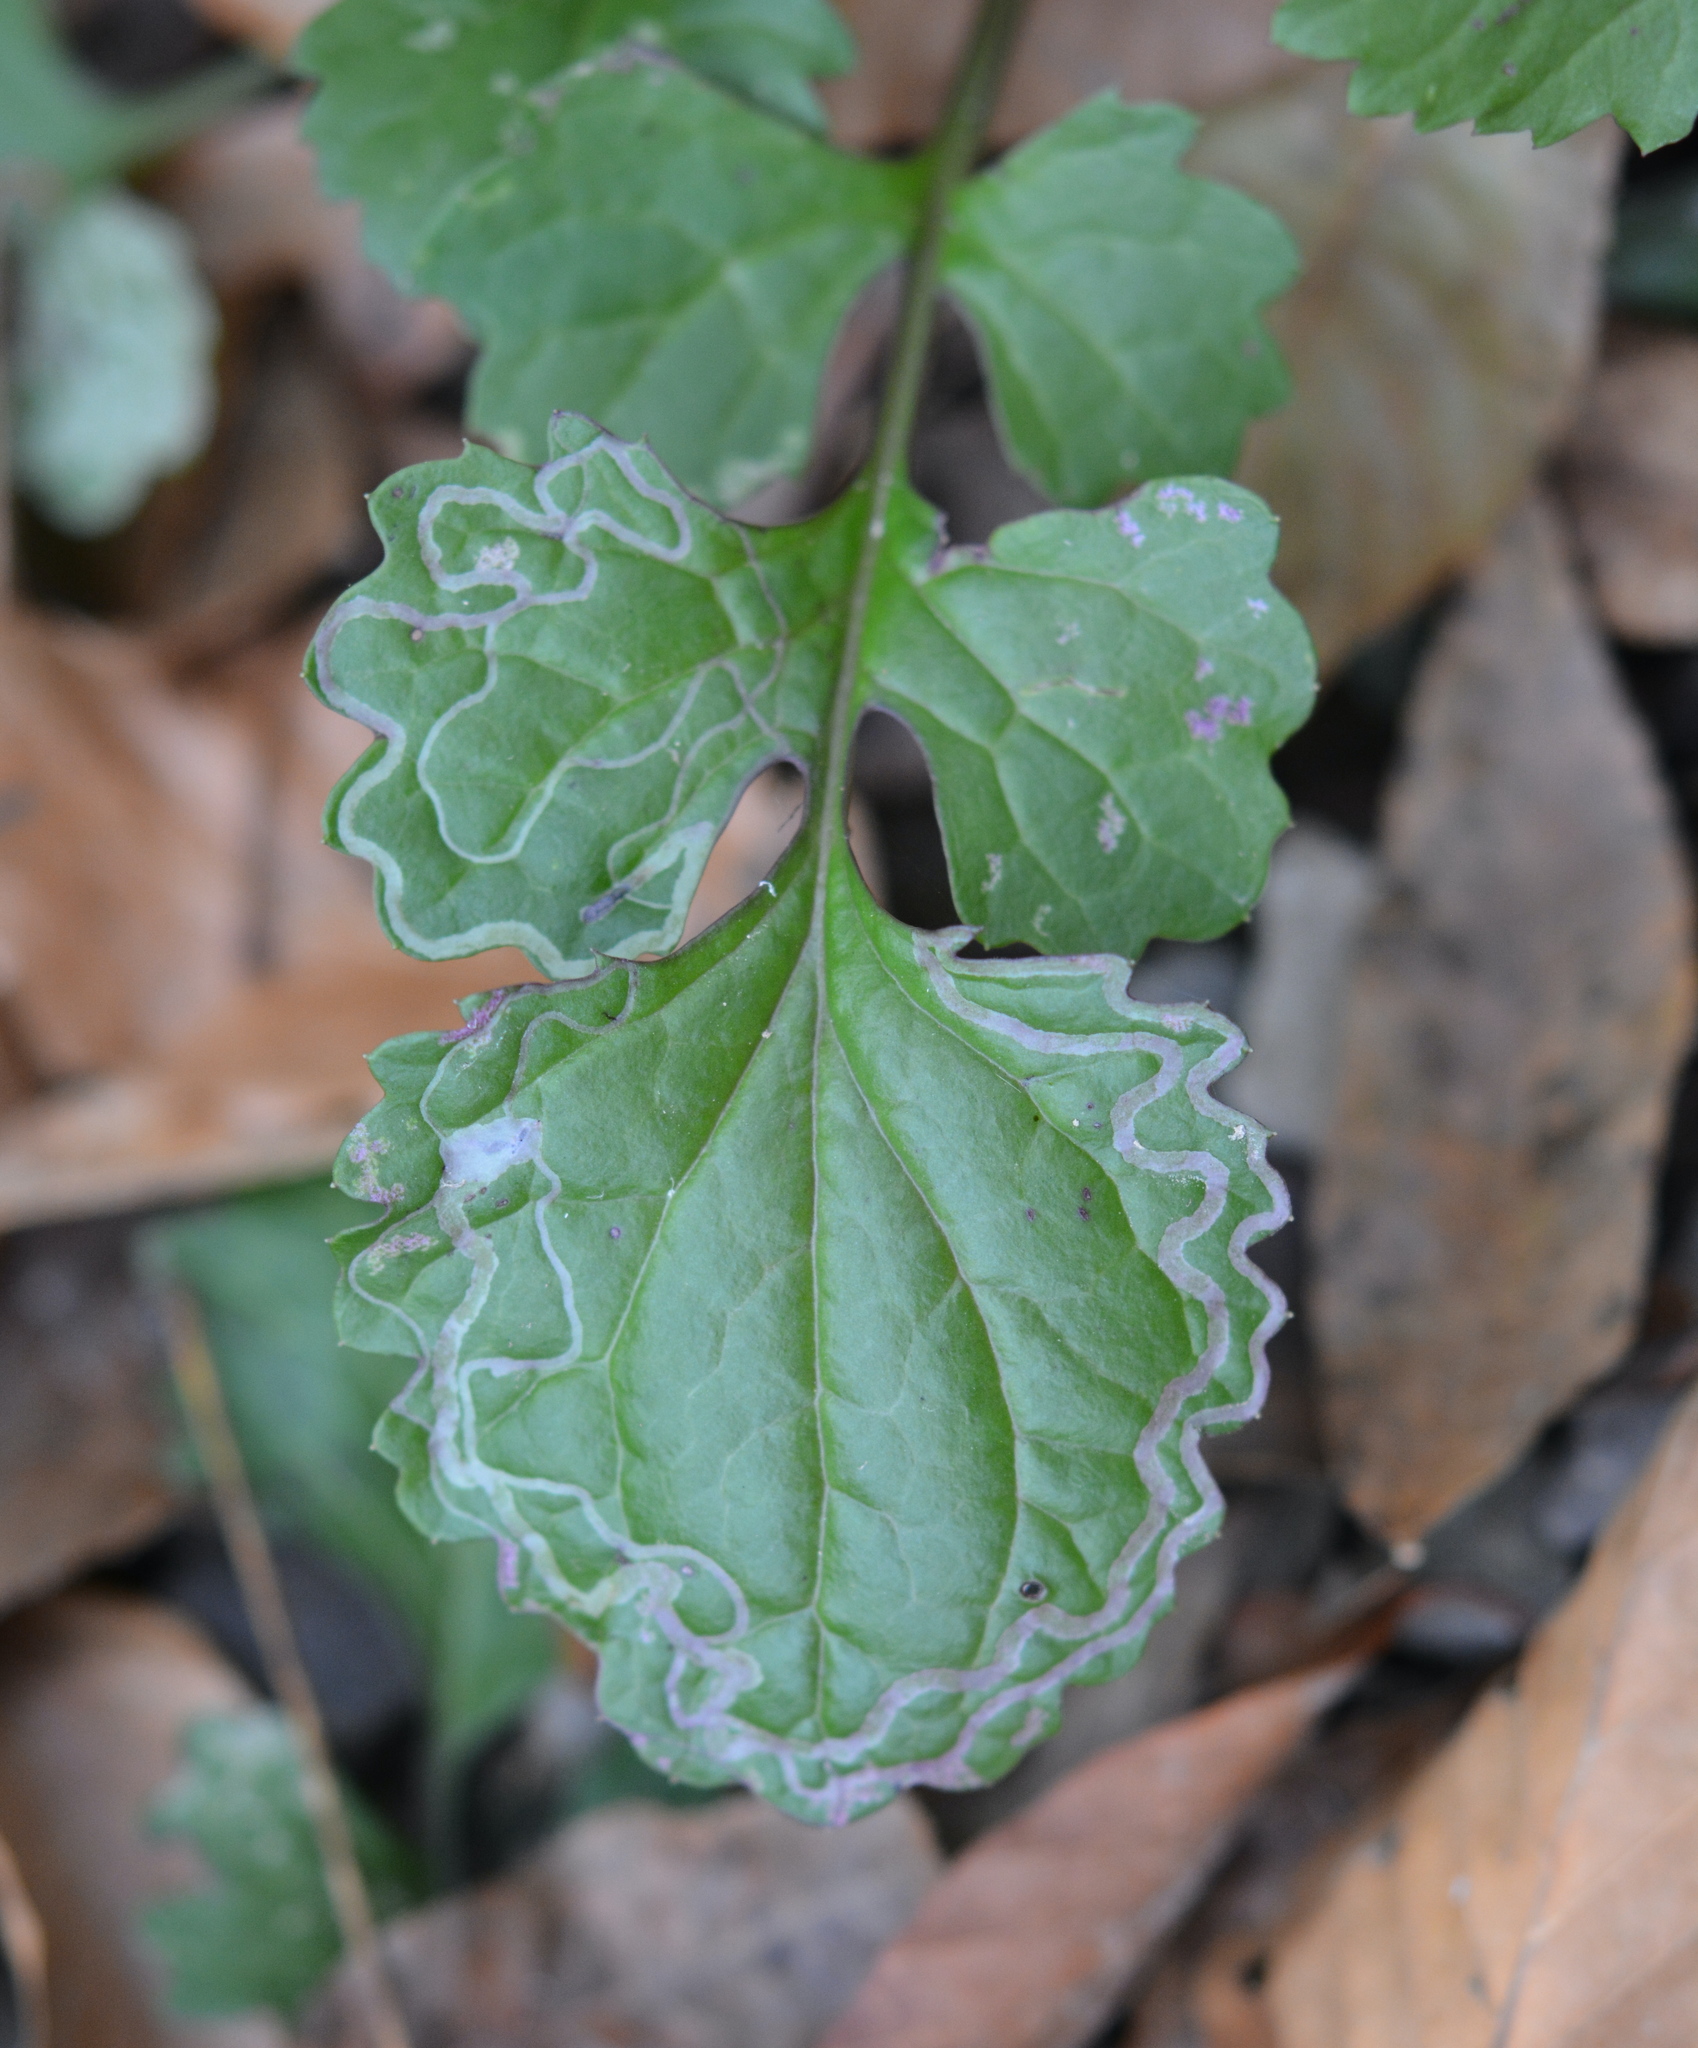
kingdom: Animalia
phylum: Arthropoda
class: Insecta
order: Lepidoptera
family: Gracillariidae
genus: Phyllocnistis
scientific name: Phyllocnistis insignis
